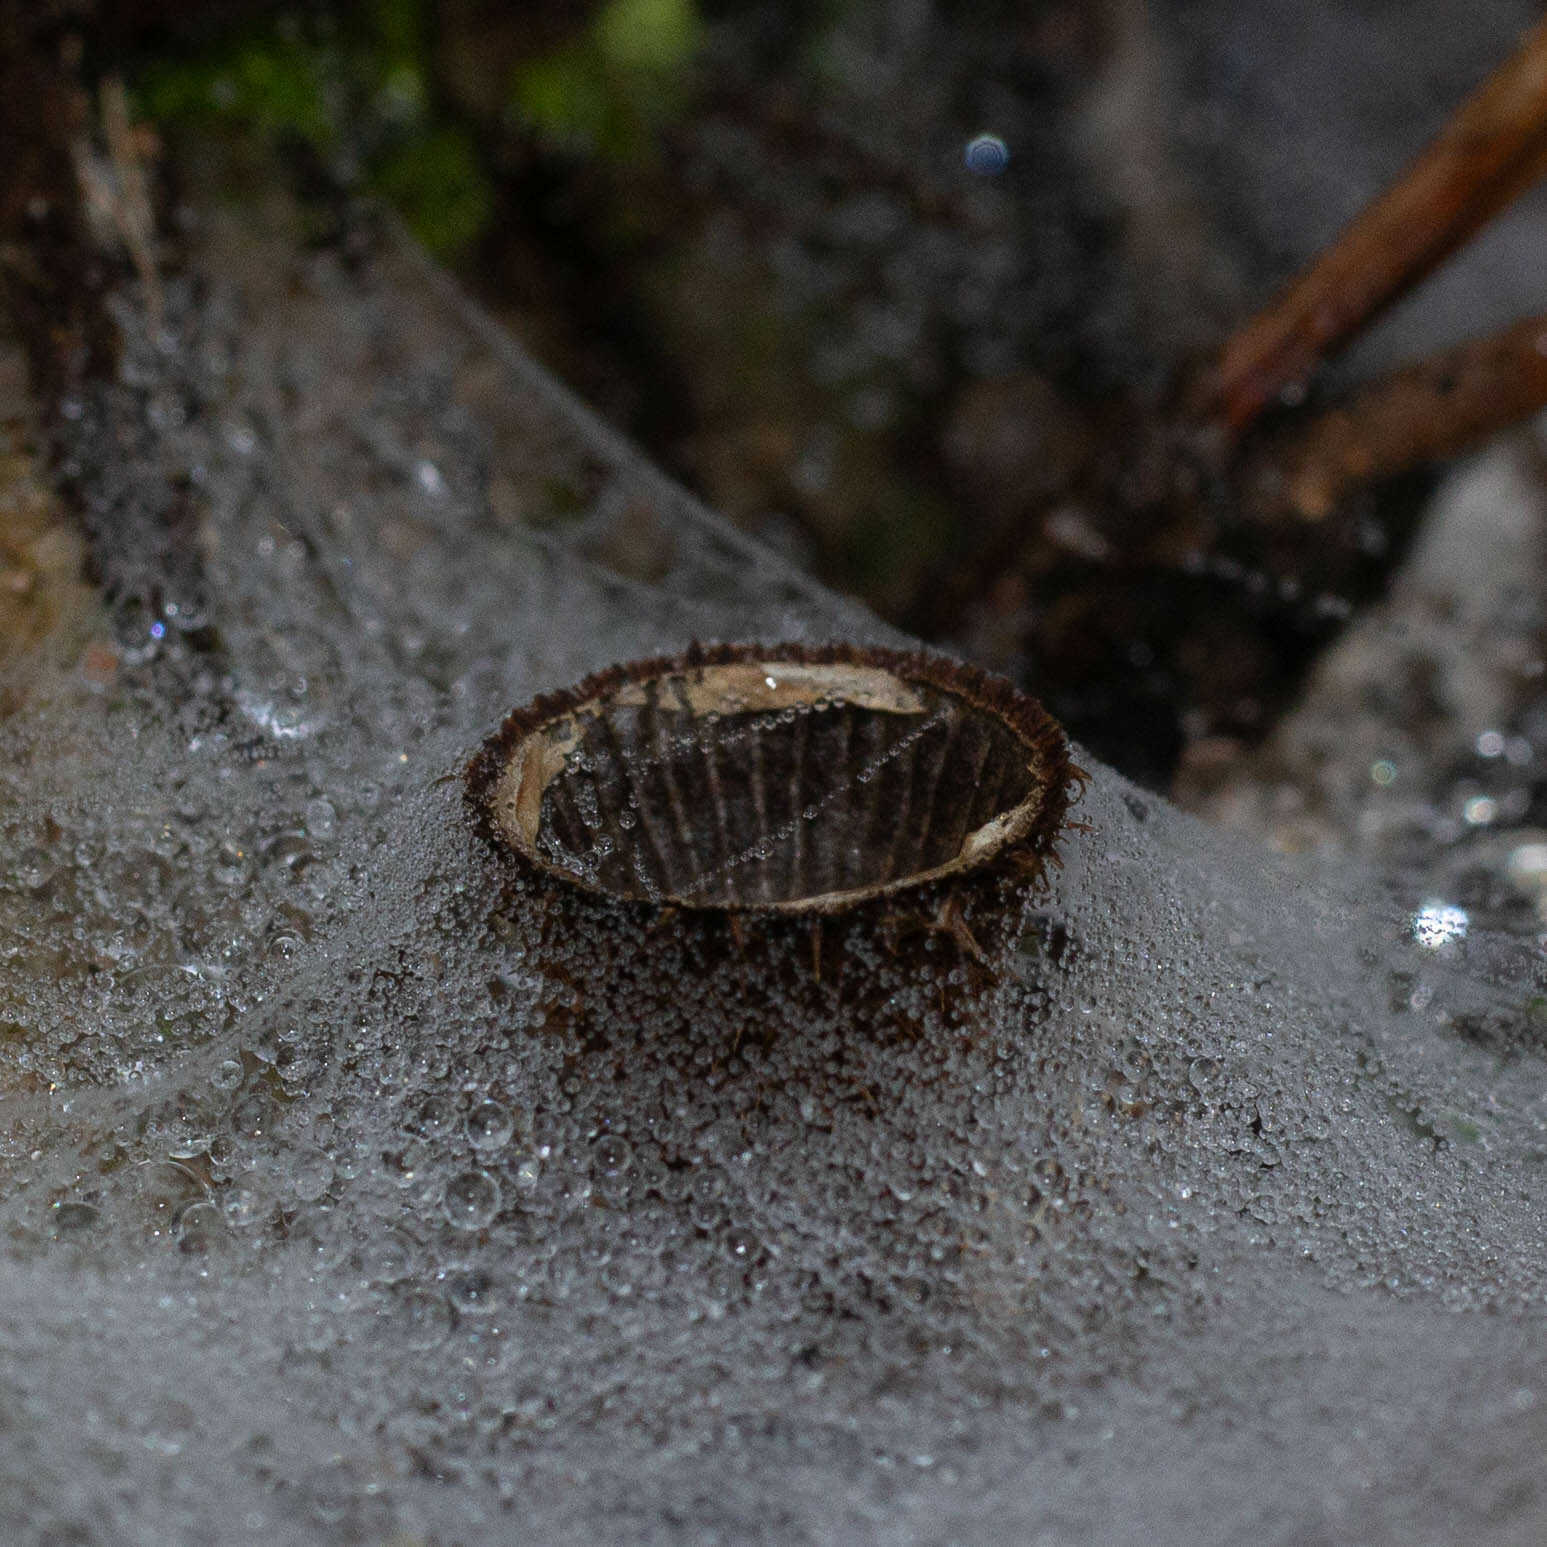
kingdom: Fungi
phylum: Basidiomycota
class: Agaricomycetes
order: Agaricales
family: Agaricaceae
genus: Cyathus
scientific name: Cyathus striatus
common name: Fluted bird's nest
